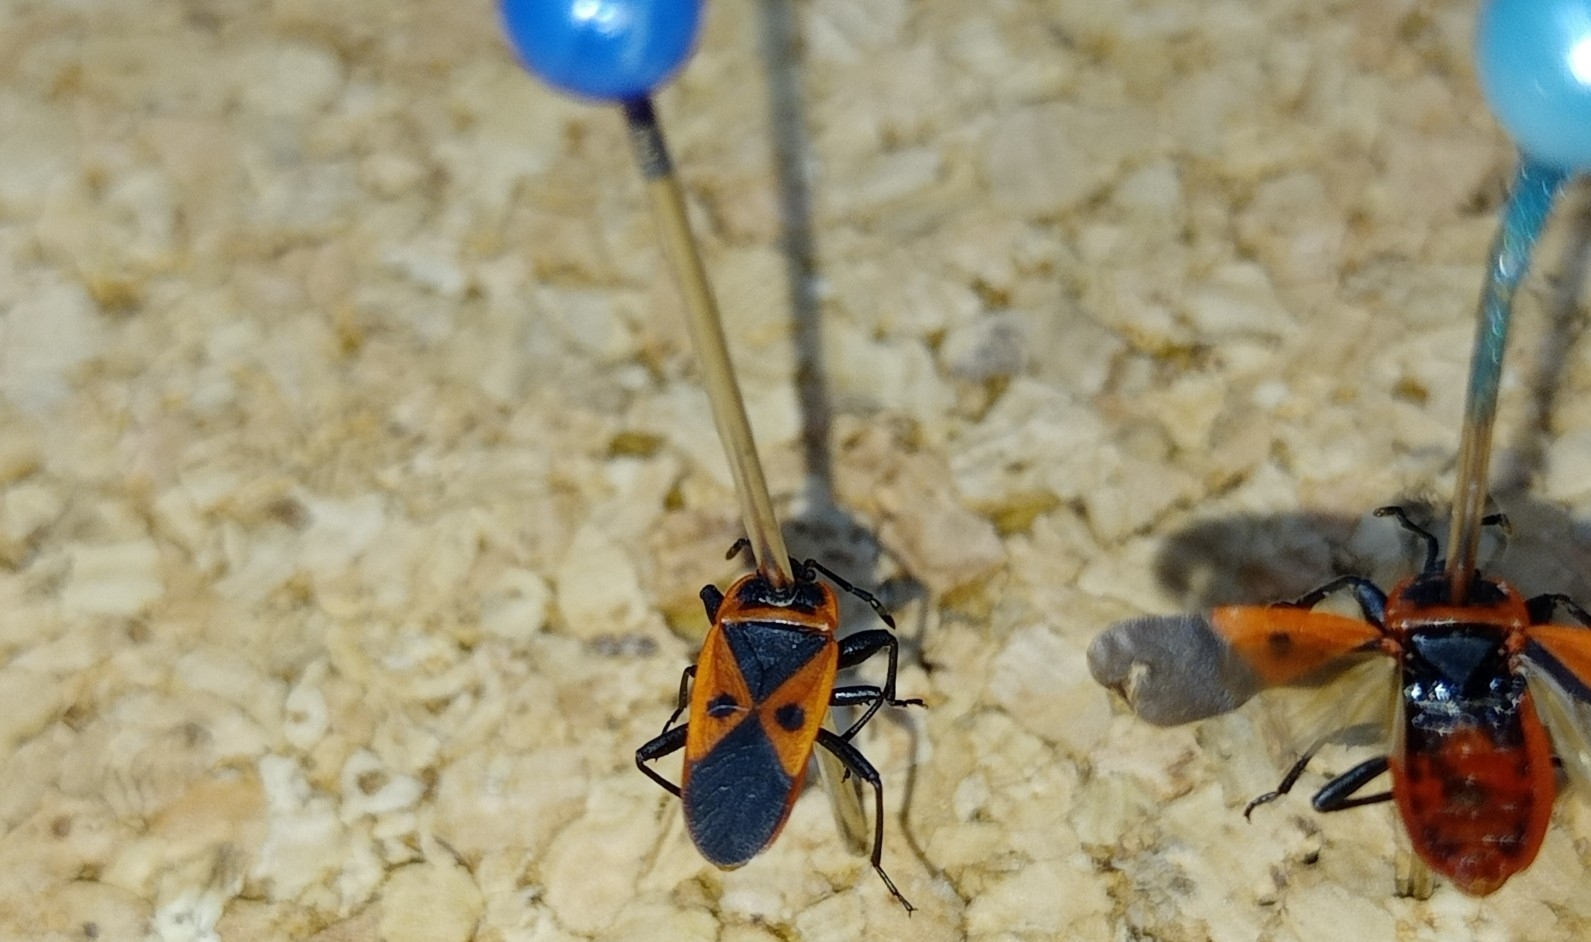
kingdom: Animalia
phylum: Arthropoda
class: Insecta
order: Hemiptera
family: Pyrrhocoridae
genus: Scantius
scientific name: Scantius aegyptius
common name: Red bug
